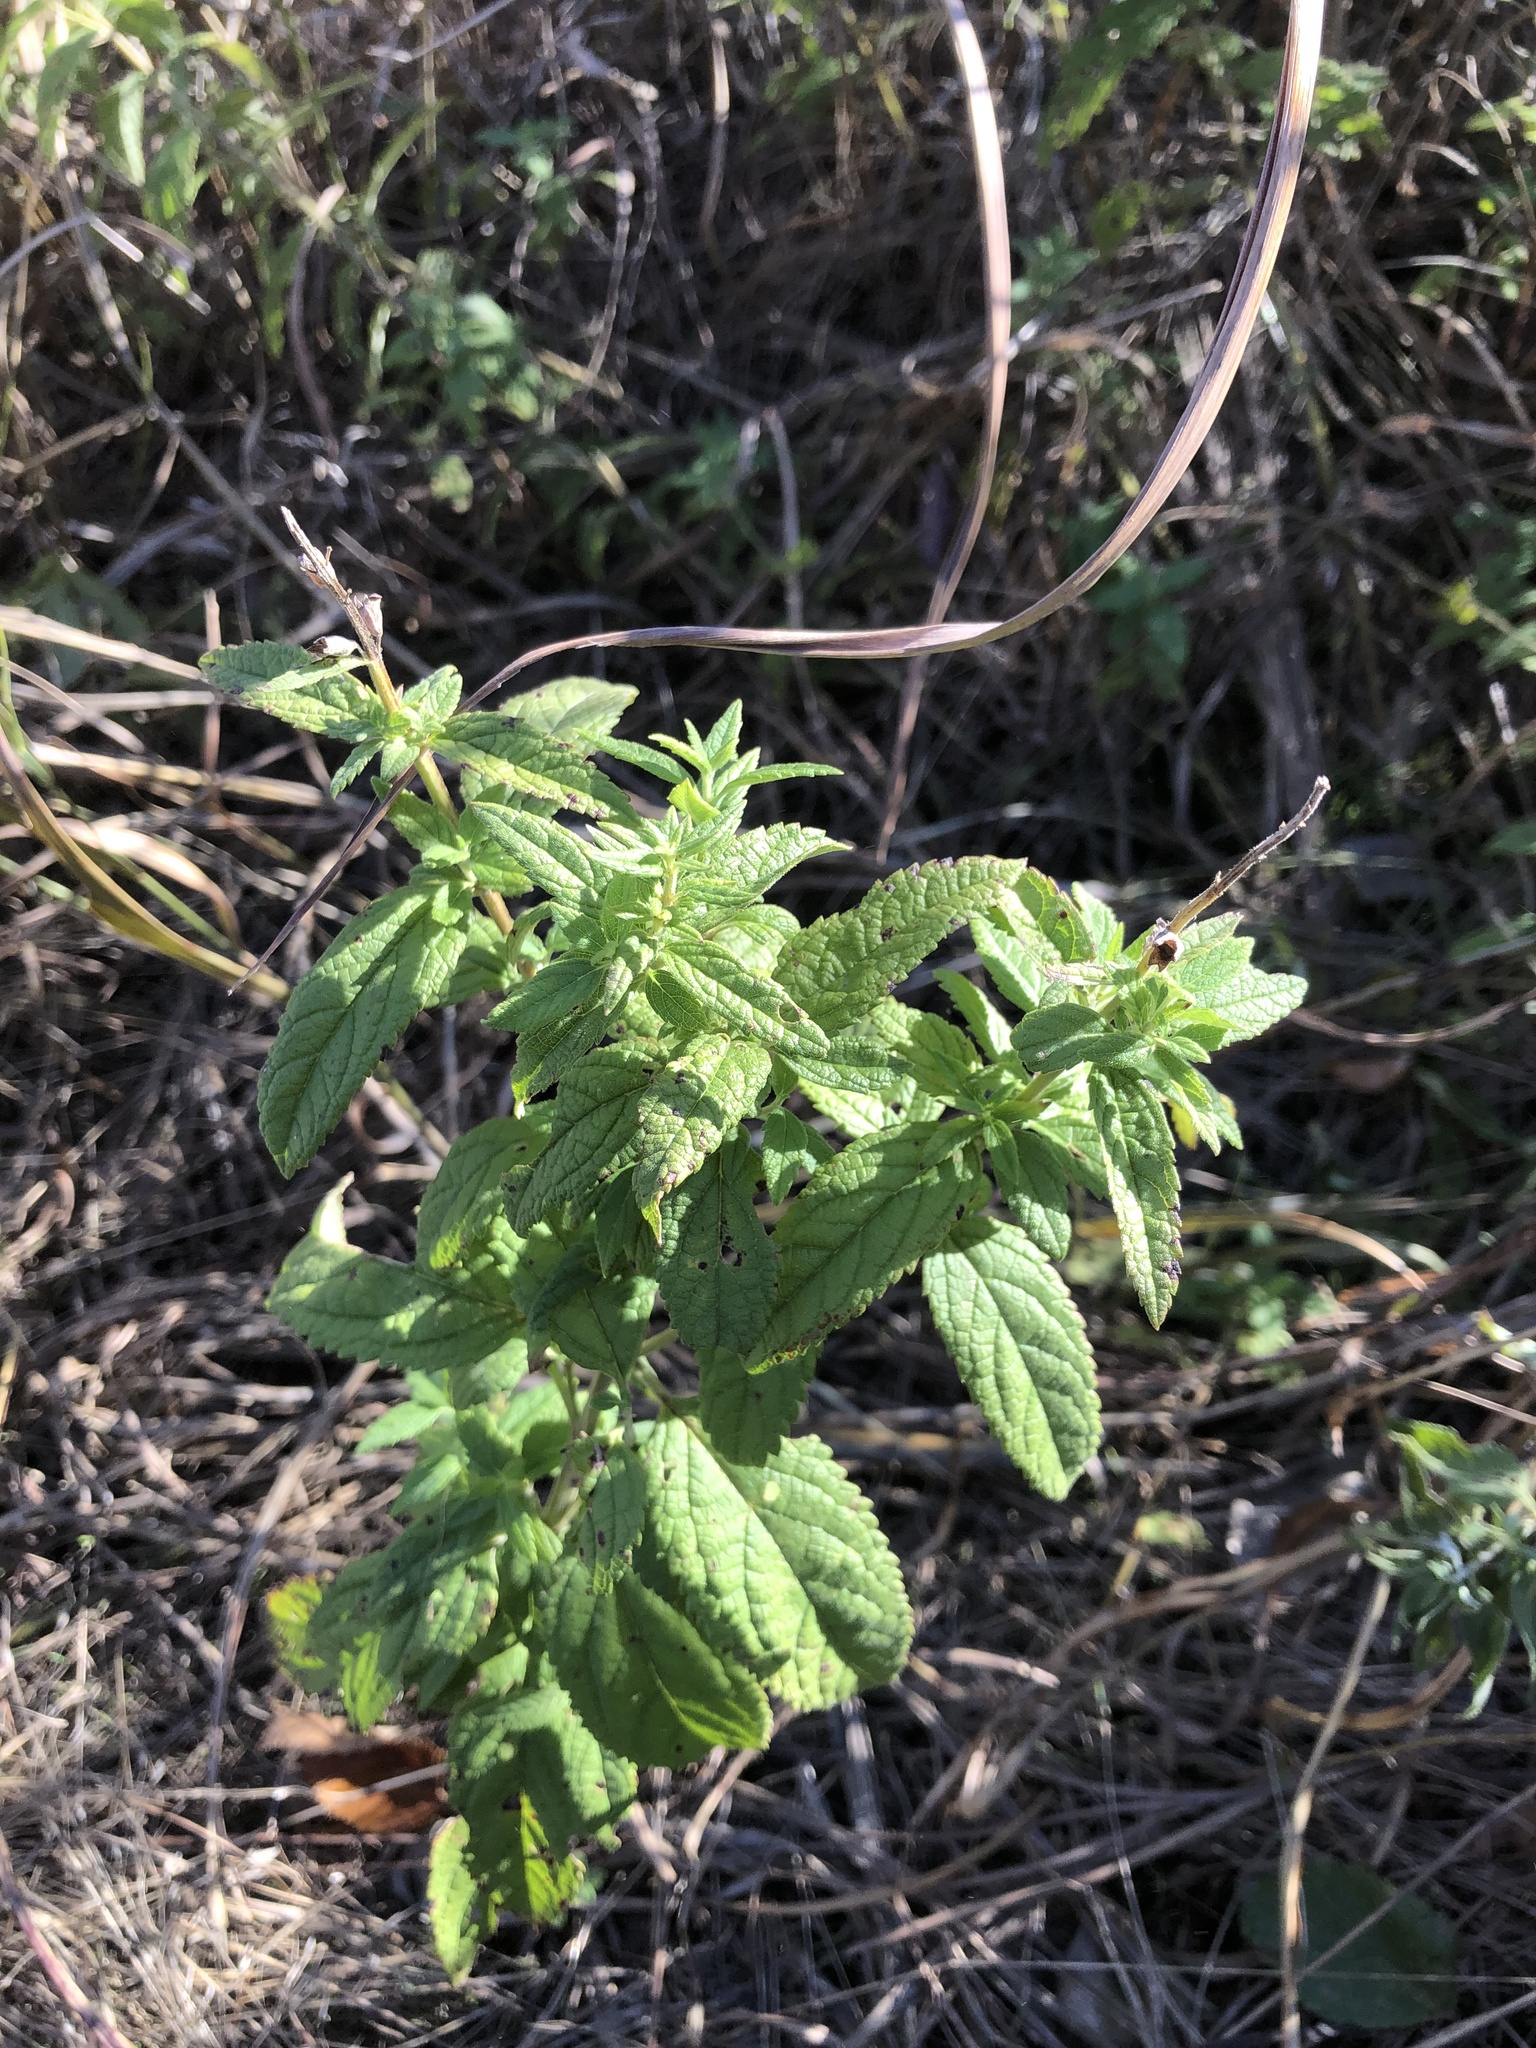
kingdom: Plantae
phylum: Tracheophyta
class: Magnoliopsida
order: Lamiales
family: Lamiaceae
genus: Teucrium
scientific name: Teucrium canadense
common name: American germander
